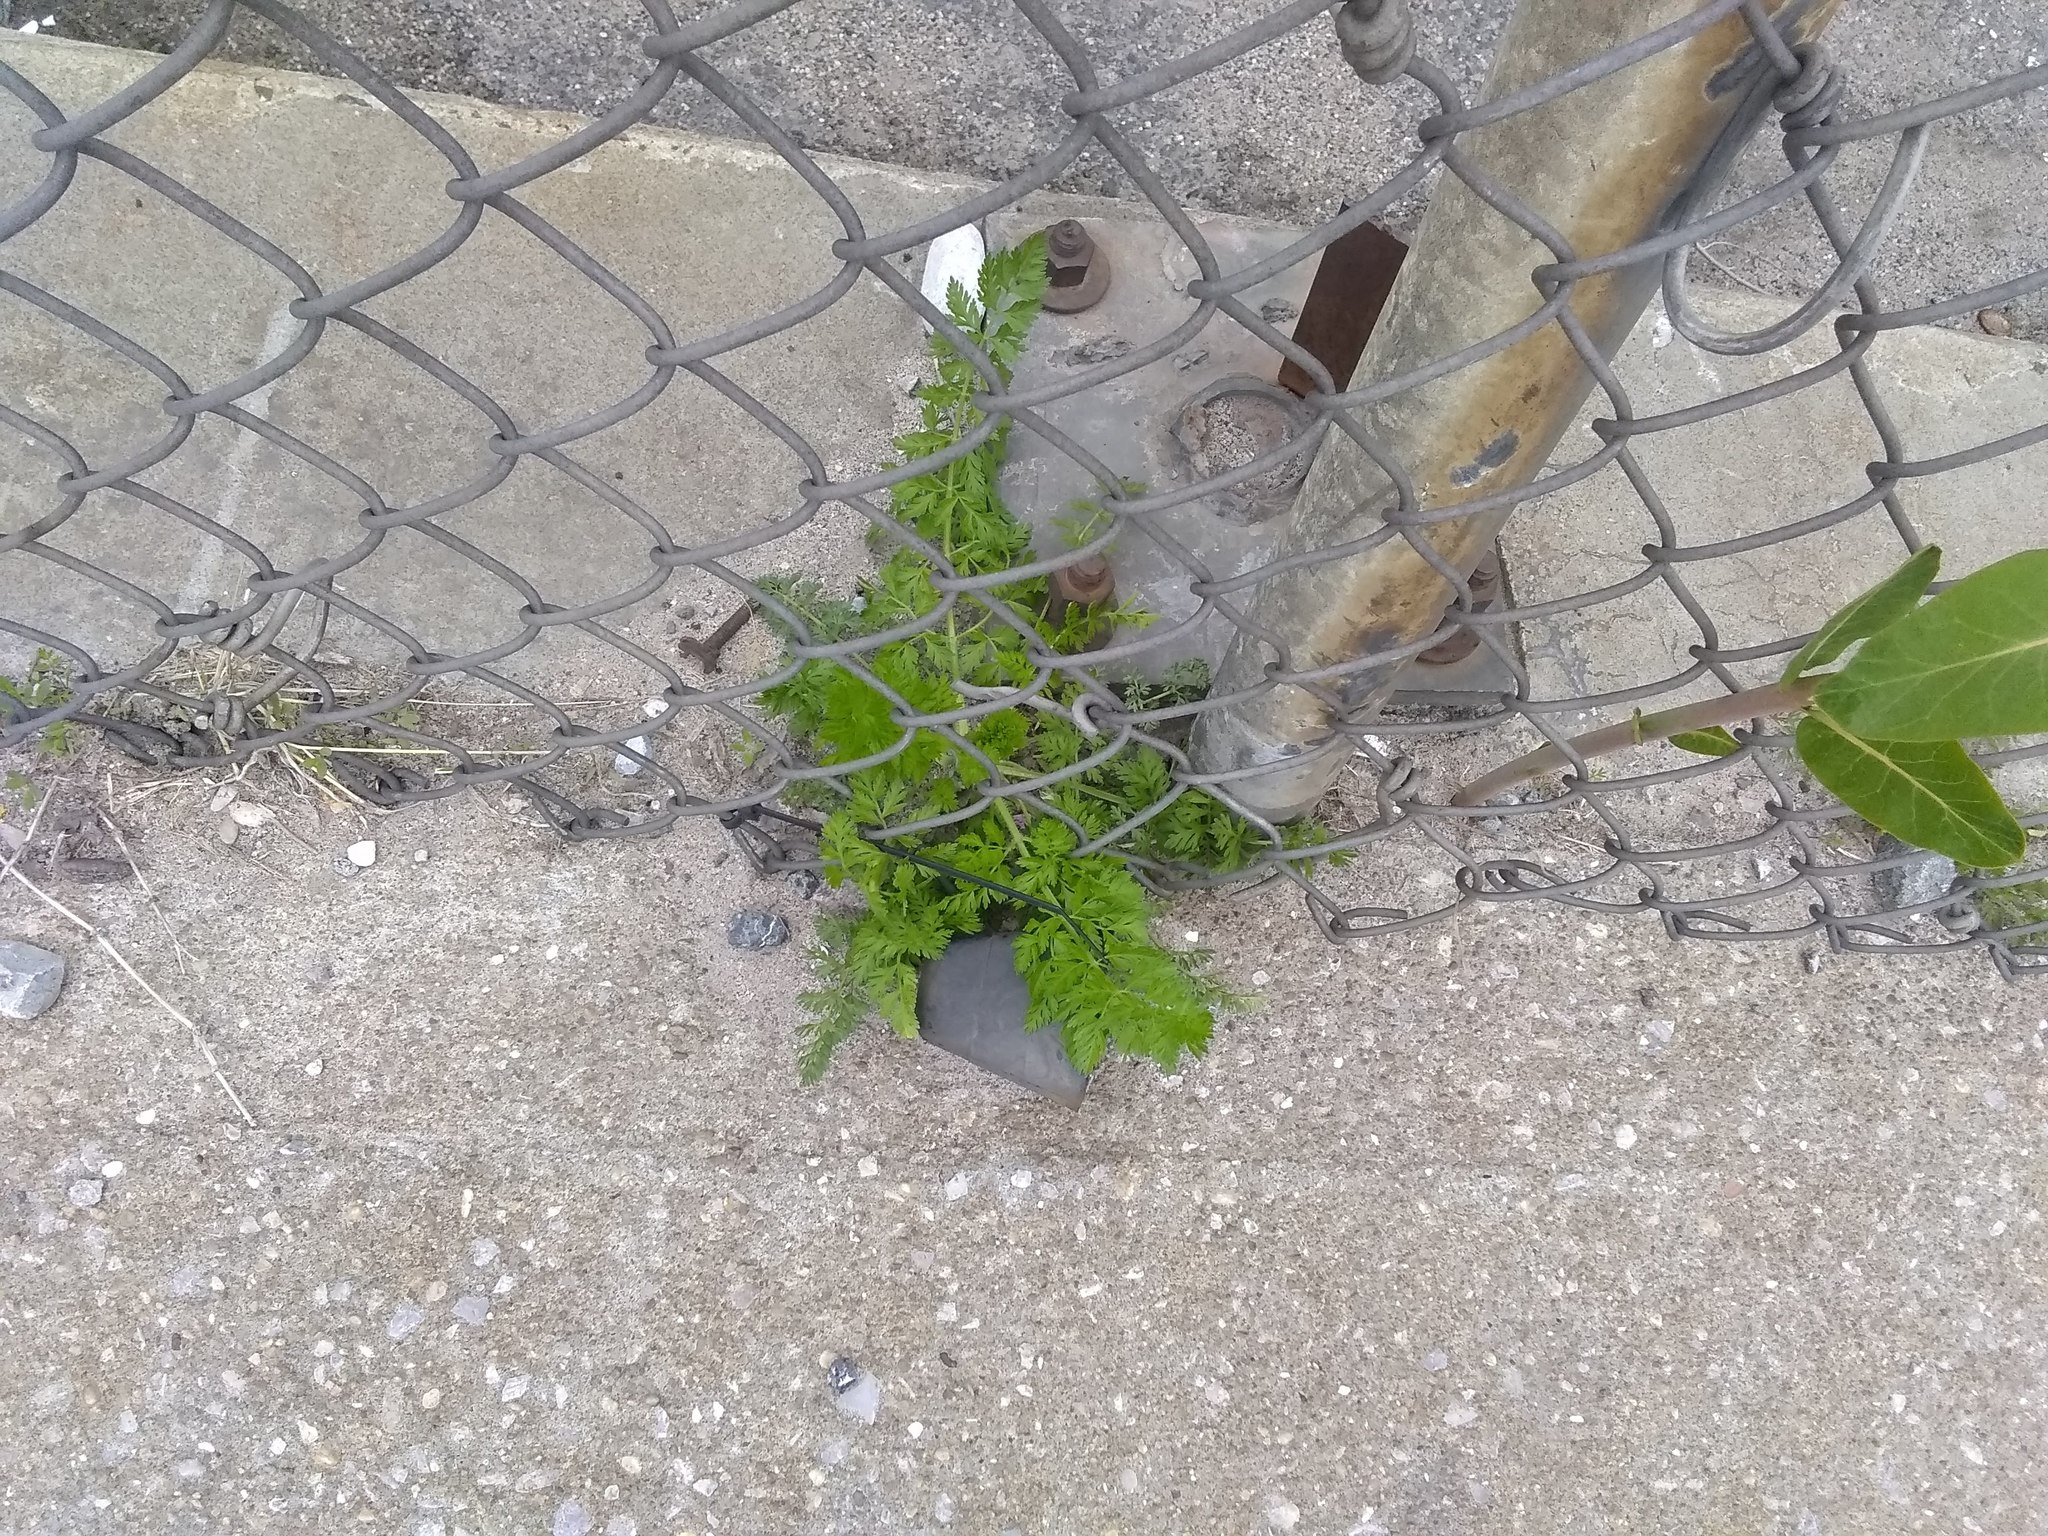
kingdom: Plantae
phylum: Tracheophyta
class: Magnoliopsida
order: Apiales
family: Apiaceae
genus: Daucus
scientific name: Daucus carota
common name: Wild carrot
